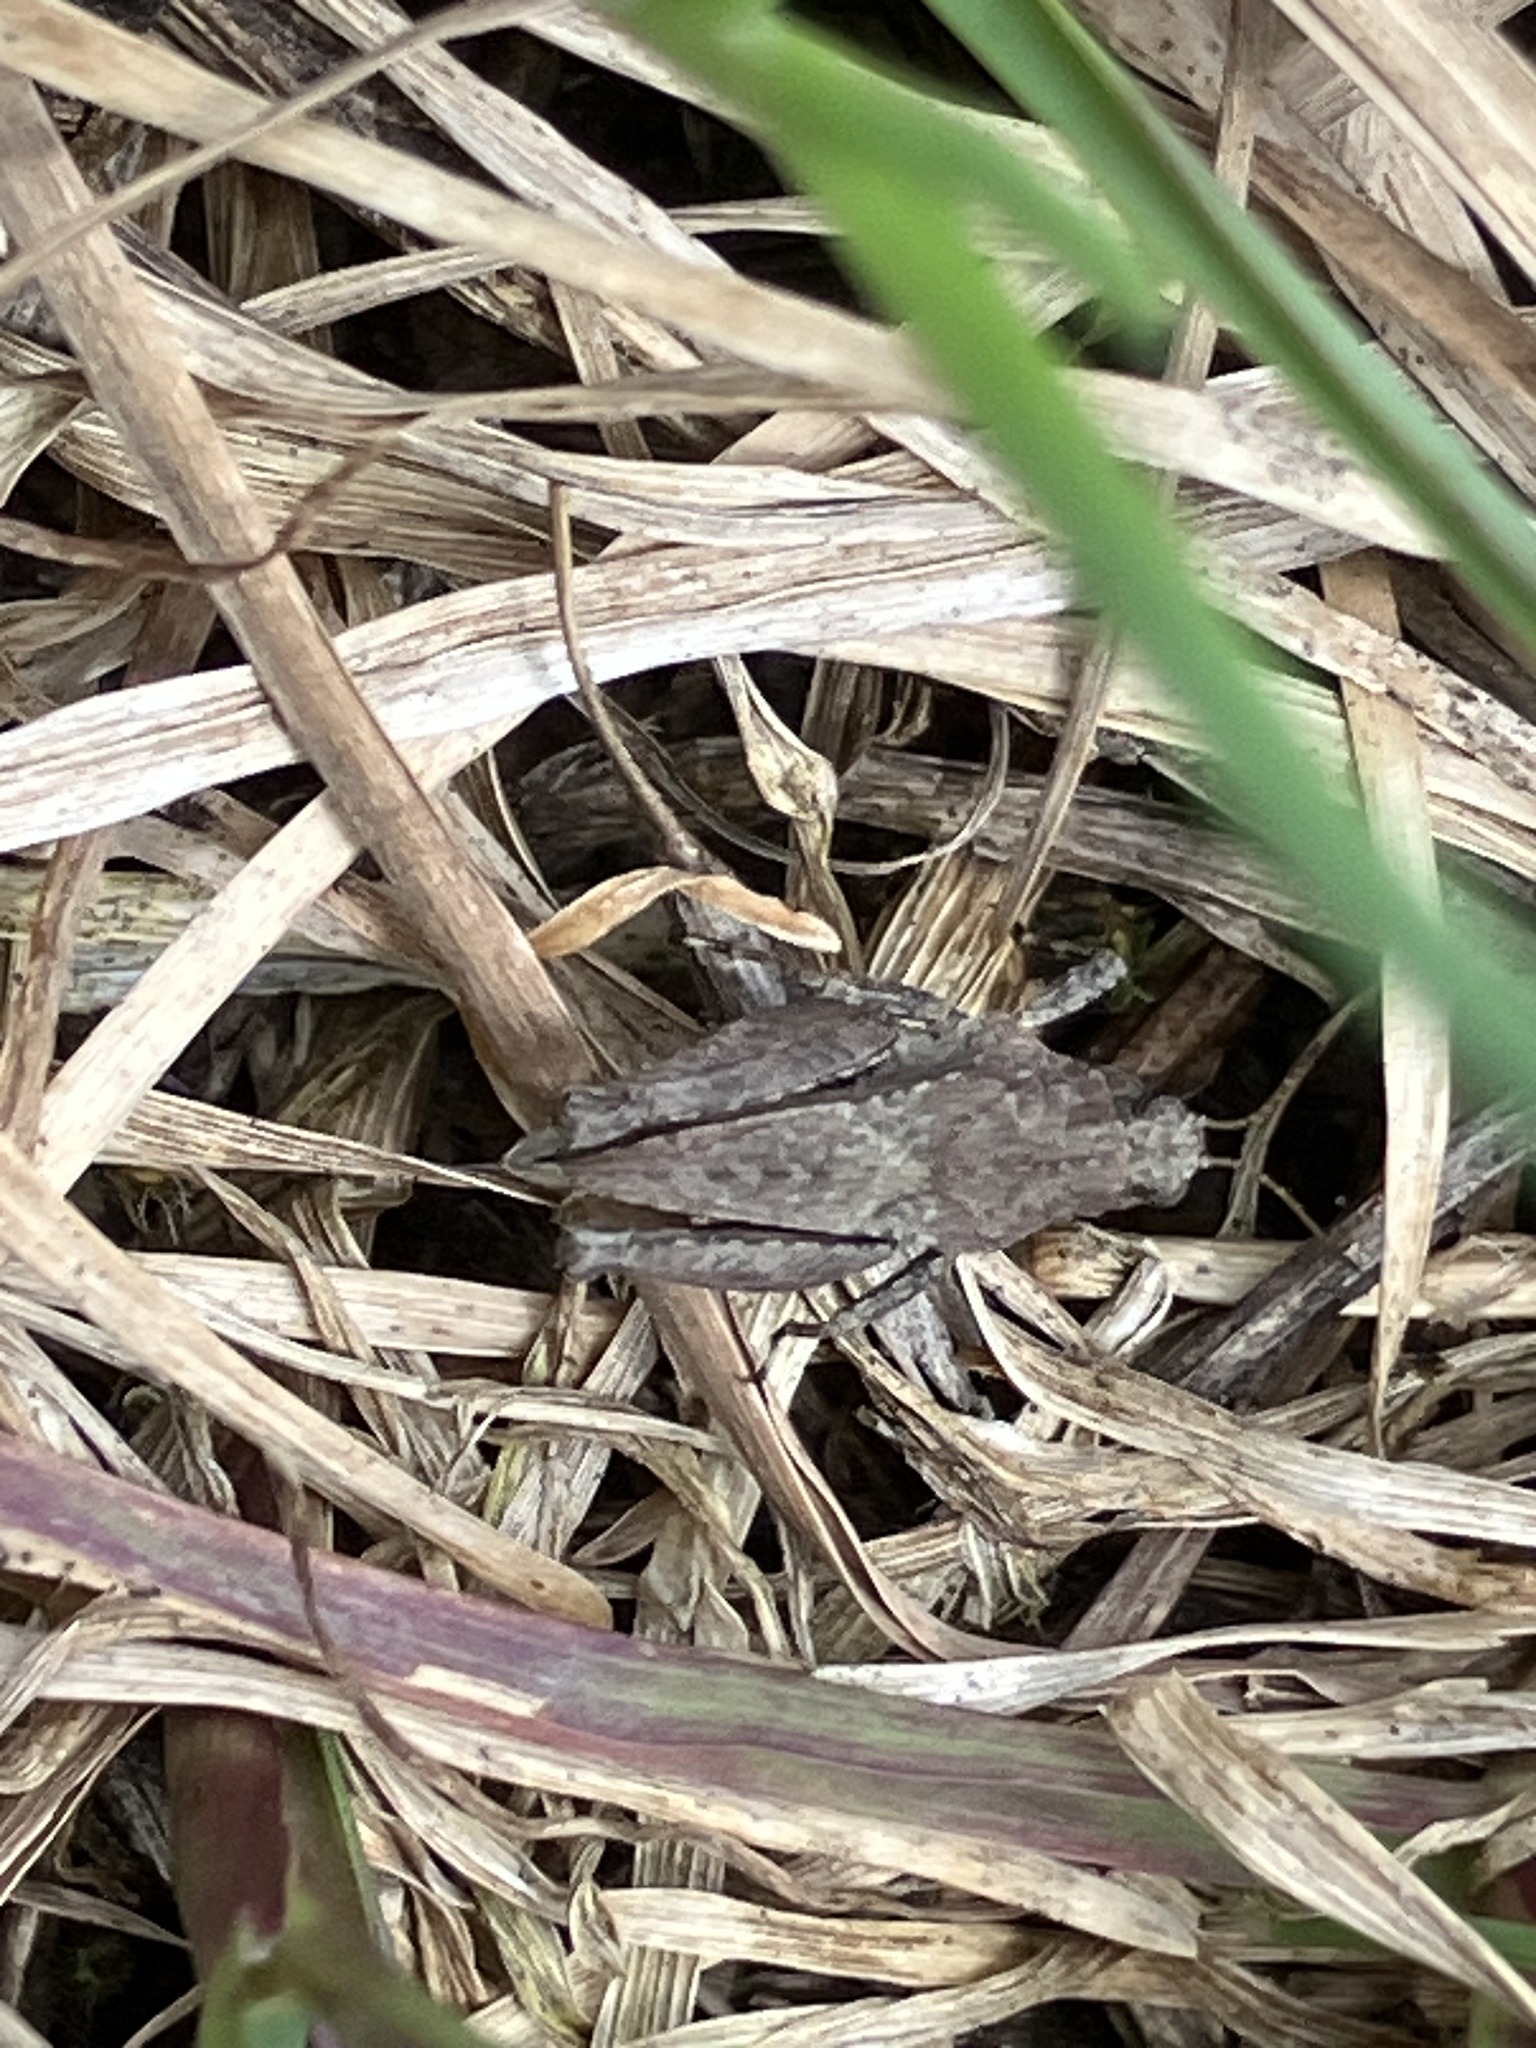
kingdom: Animalia
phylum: Arthropoda
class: Insecta
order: Orthoptera
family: Tetrigidae
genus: Tetrix
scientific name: Tetrix tenuicornis
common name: Long-horned groundhopper
